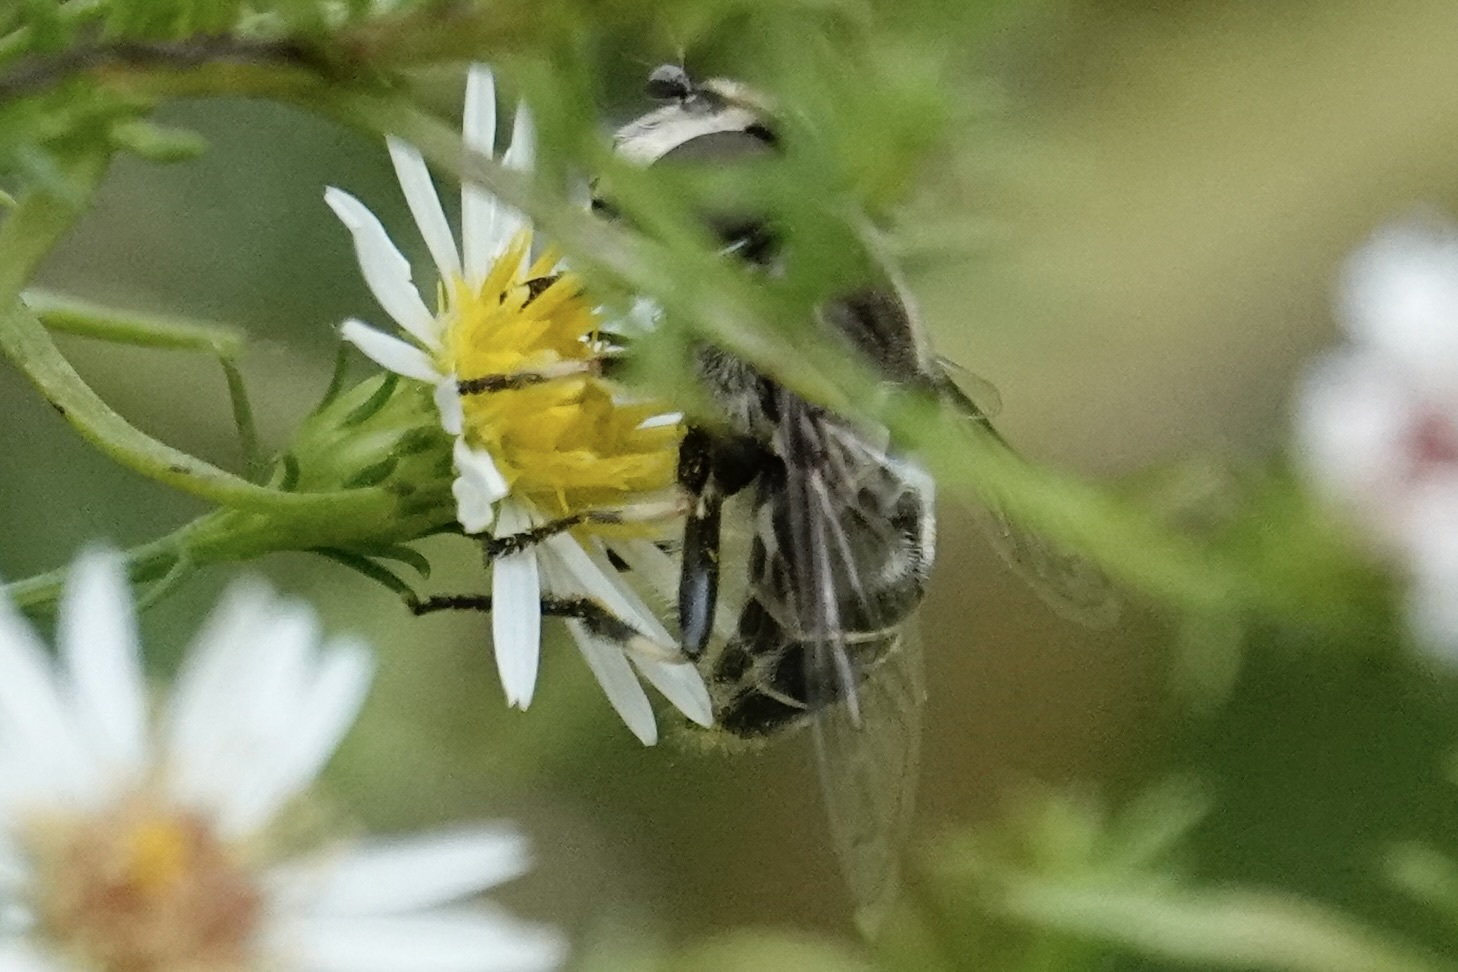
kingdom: Animalia
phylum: Arthropoda
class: Insecta
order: Diptera
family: Syrphidae
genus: Eristalis
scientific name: Eristalis dimidiata
